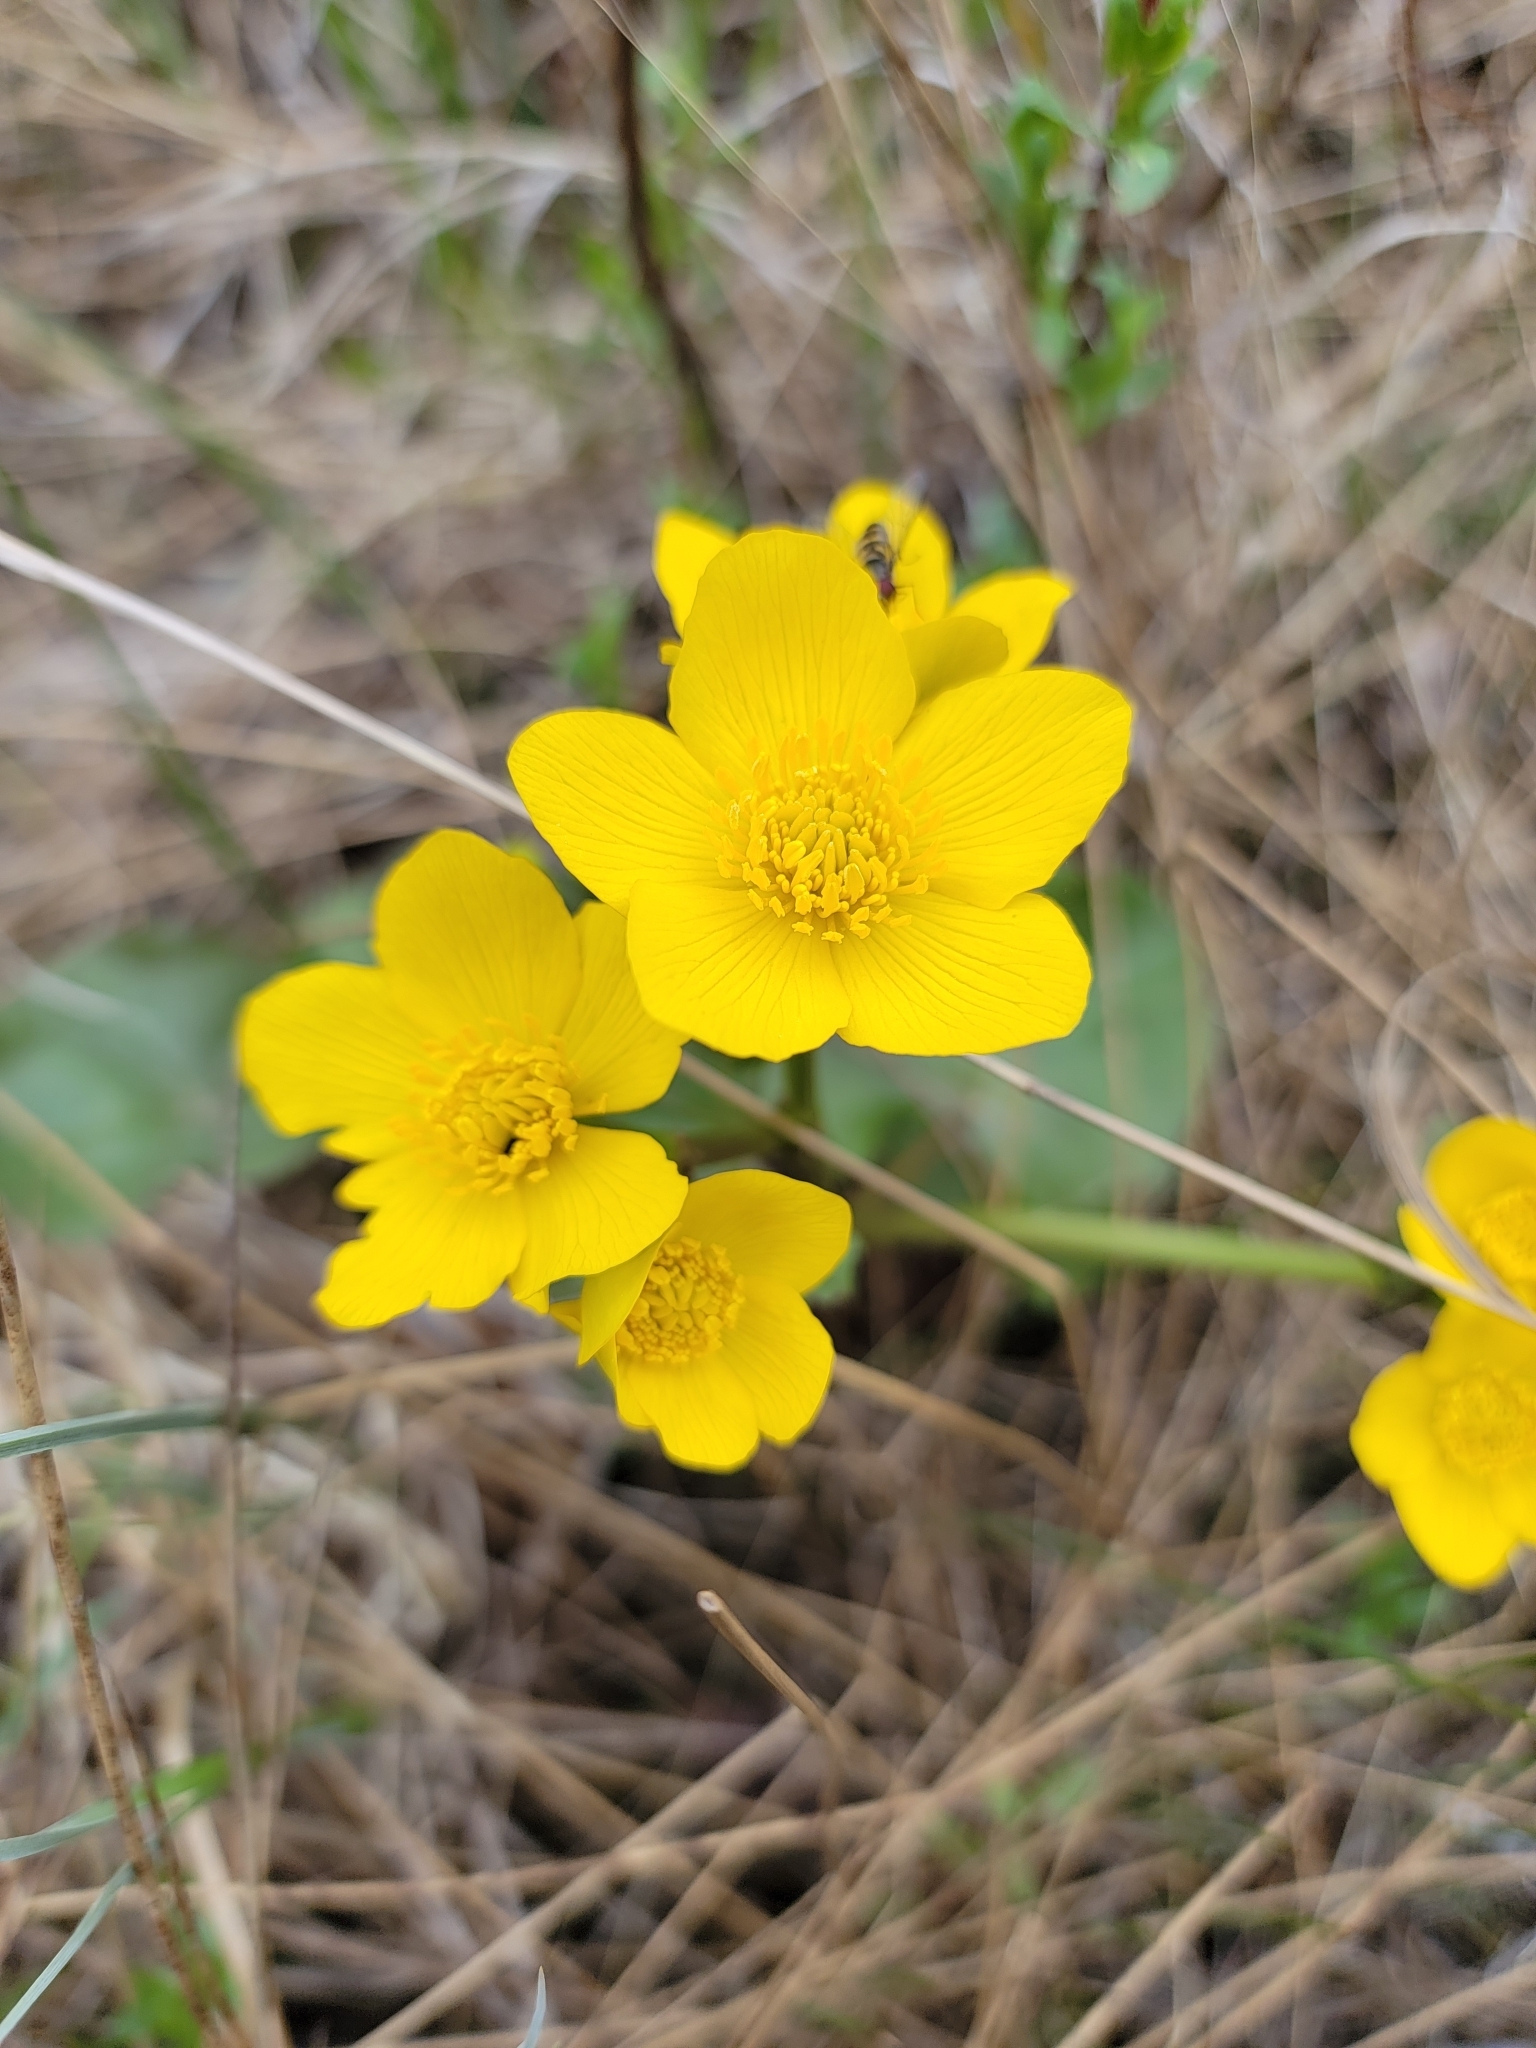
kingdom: Plantae
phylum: Tracheophyta
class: Magnoliopsida
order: Ranunculales
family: Ranunculaceae
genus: Caltha
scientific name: Caltha palustris
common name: Marsh marigold
